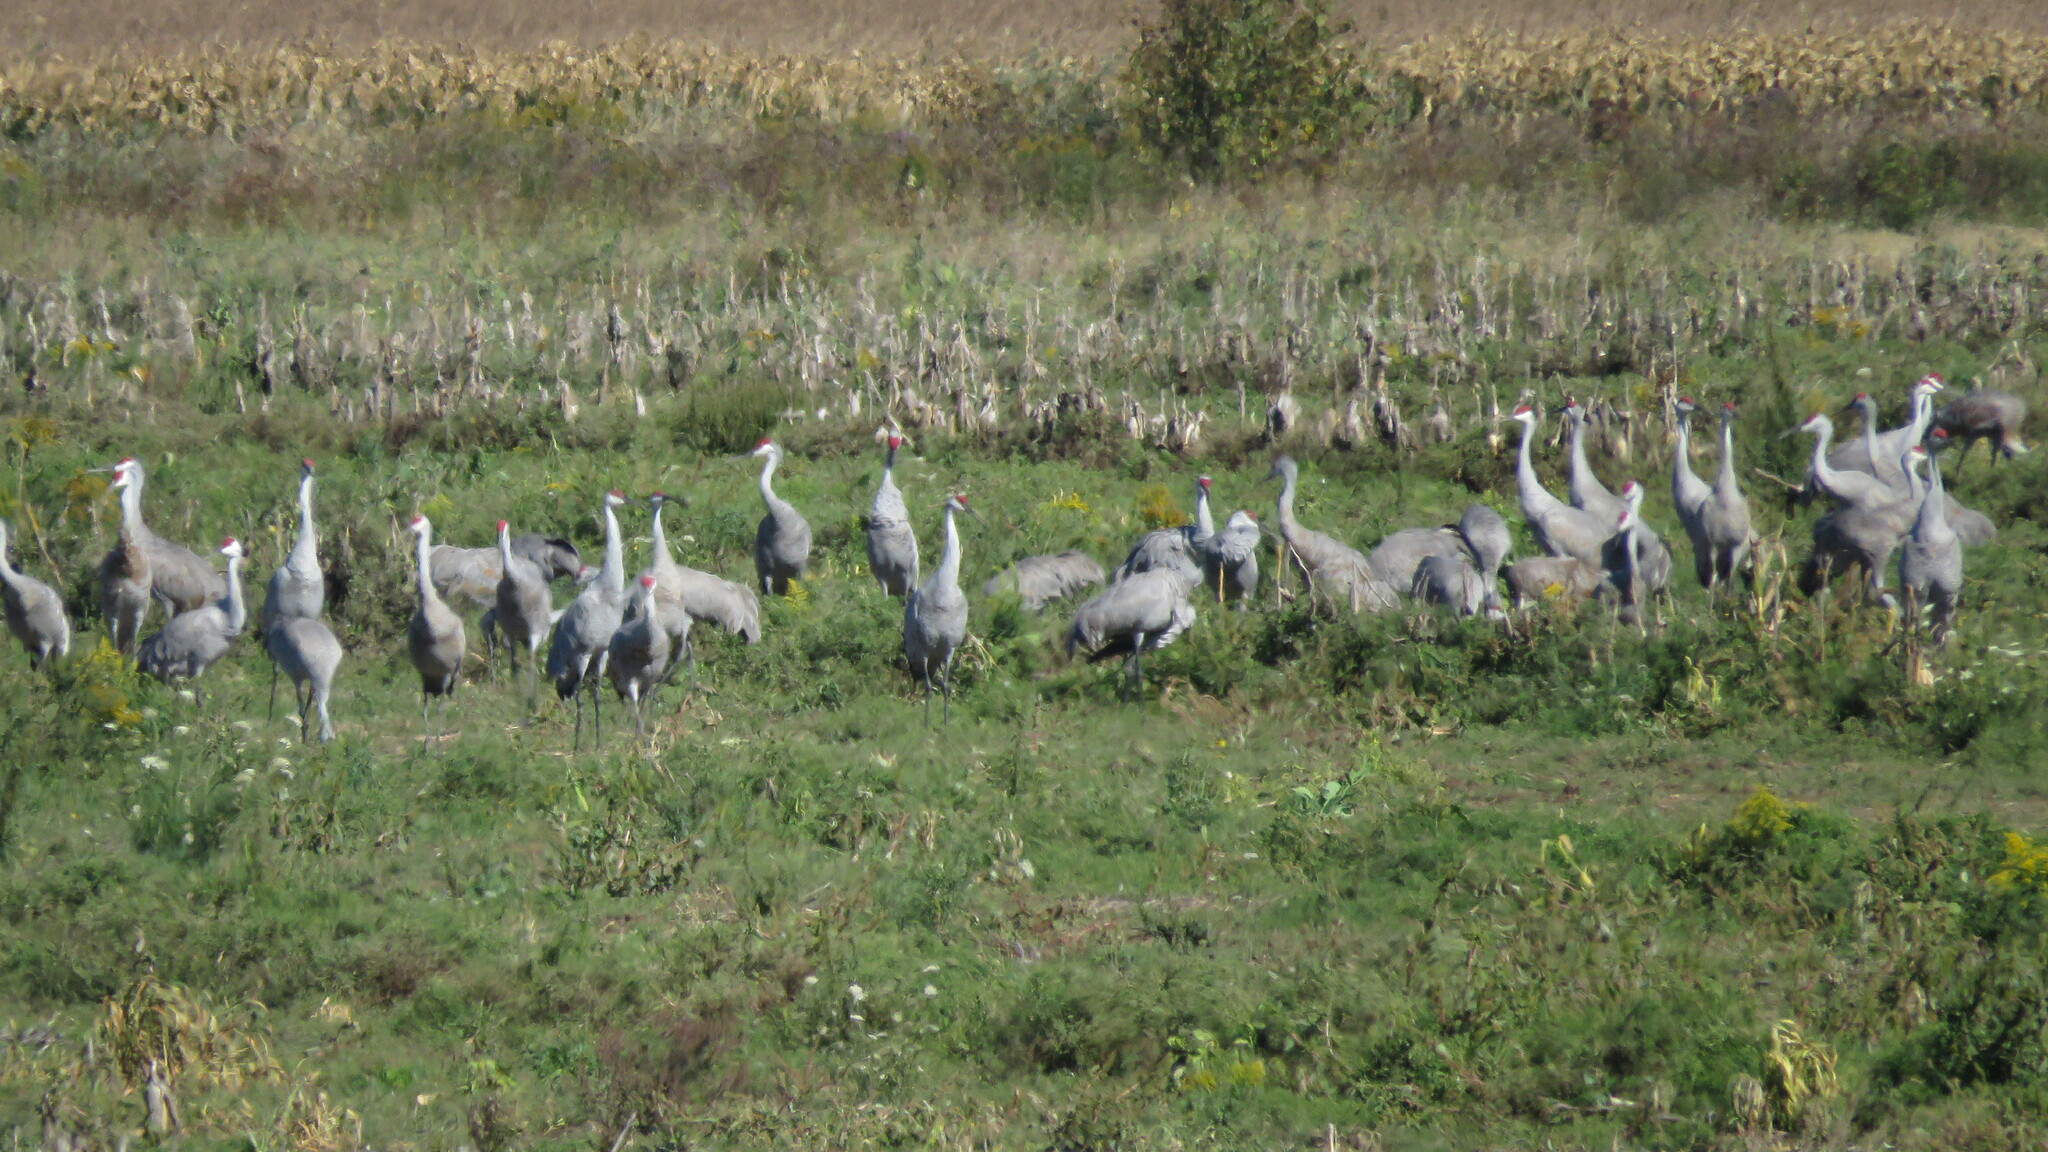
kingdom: Animalia
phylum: Chordata
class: Aves
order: Gruiformes
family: Gruidae
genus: Grus
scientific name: Grus canadensis
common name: Sandhill crane
